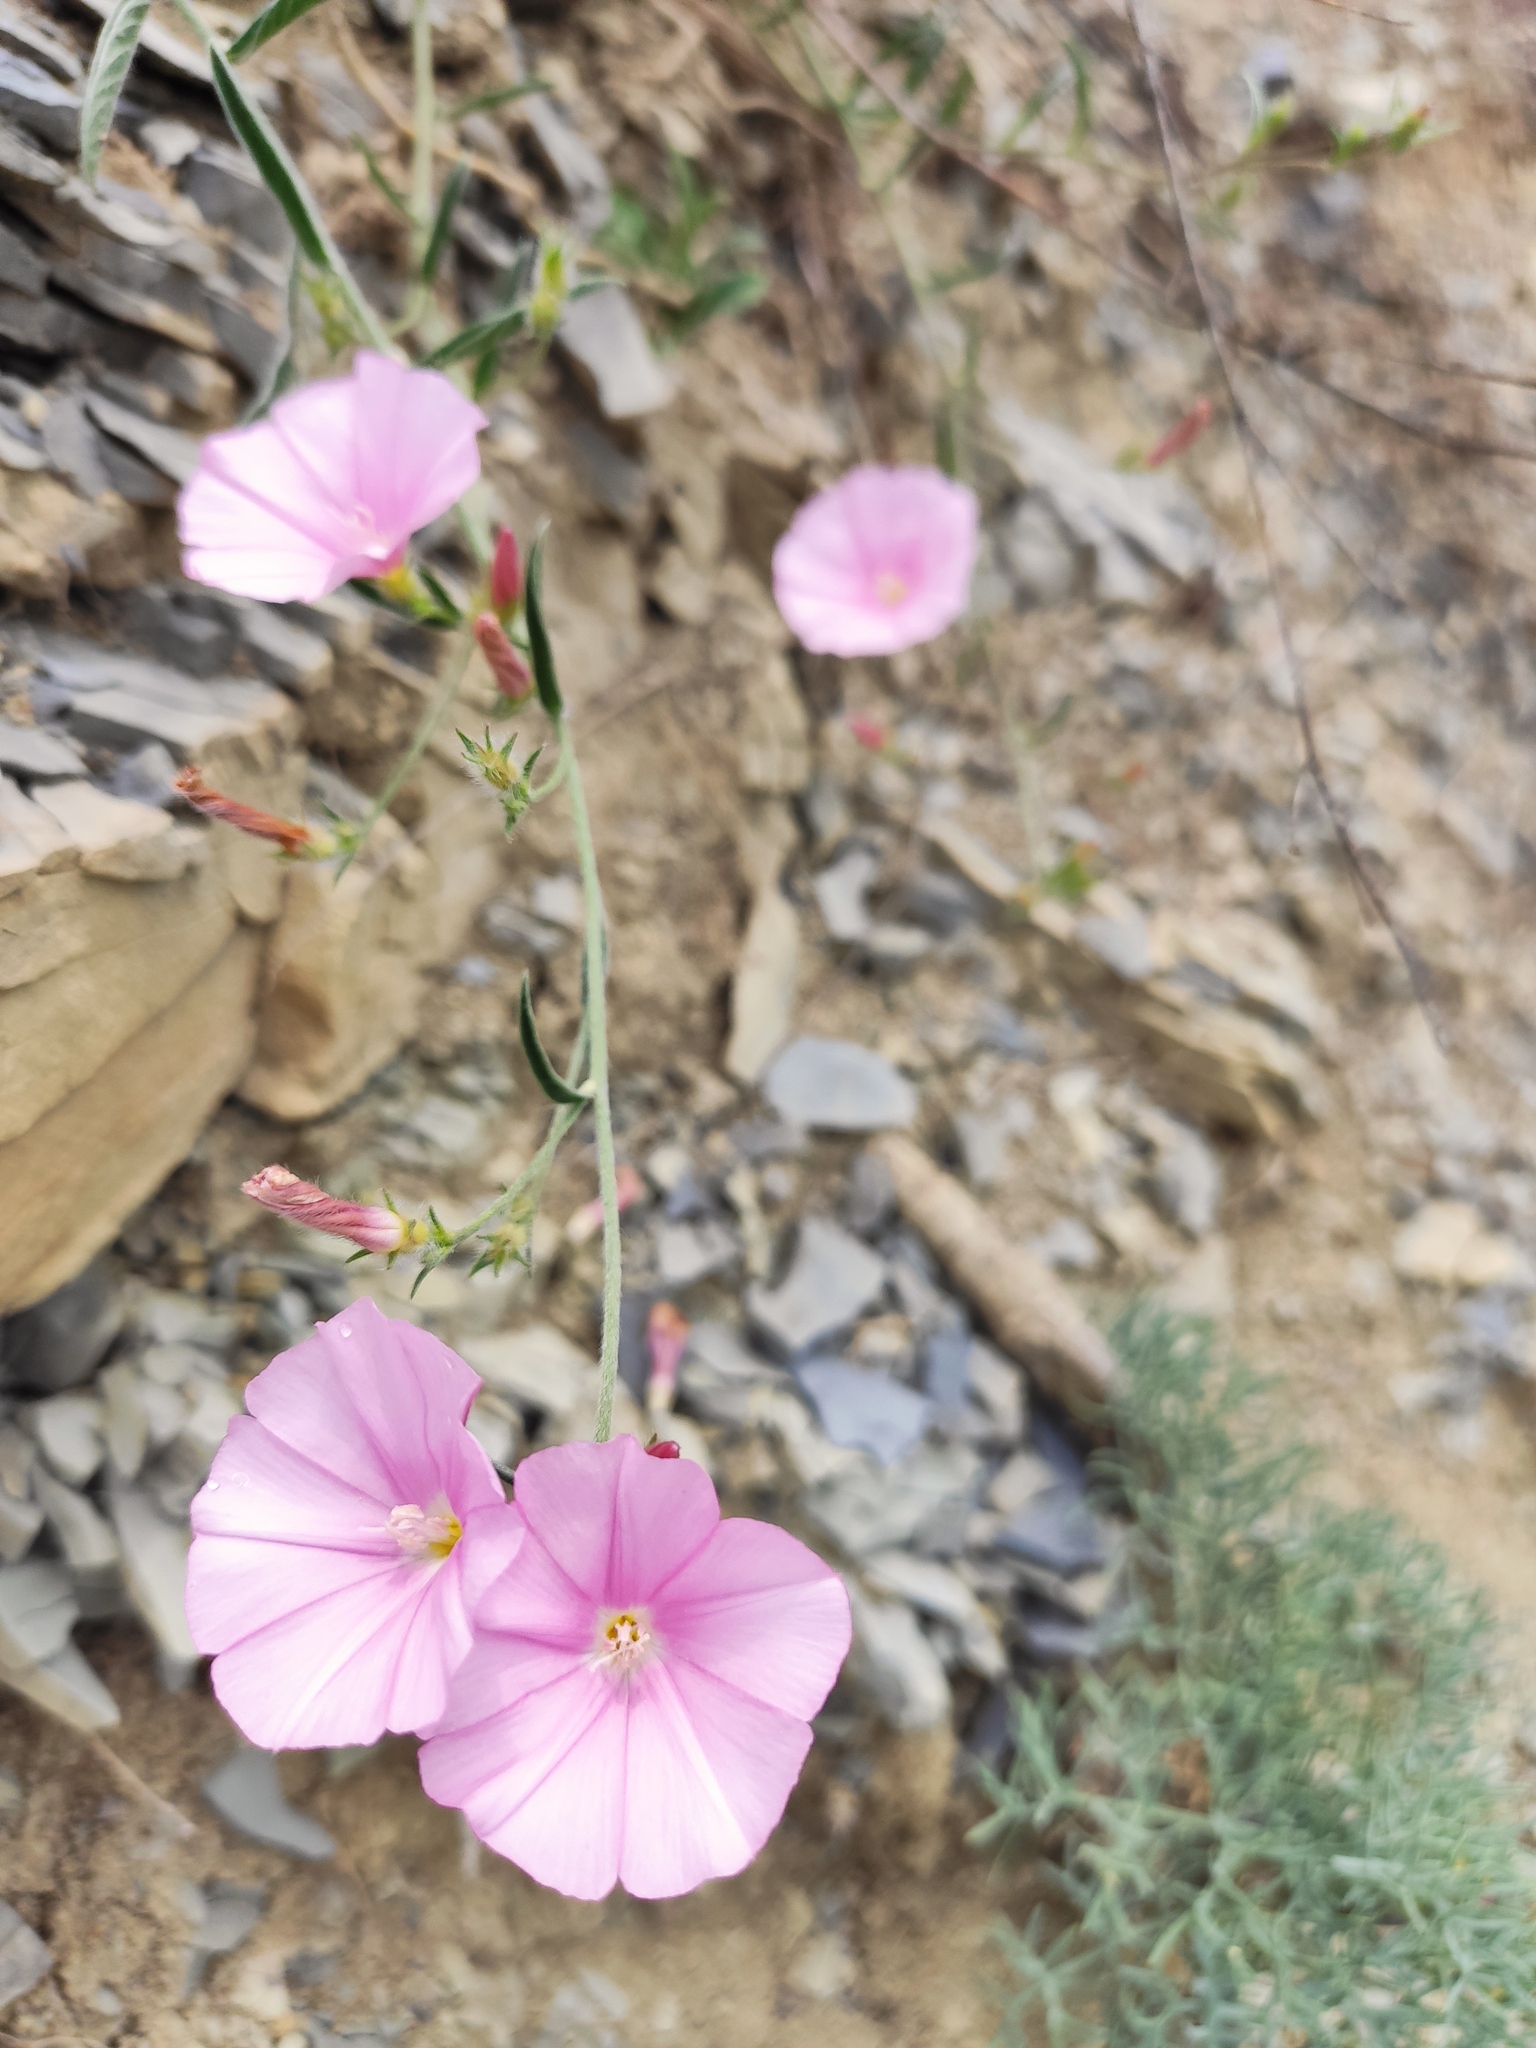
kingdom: Plantae
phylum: Tracheophyta
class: Magnoliopsida
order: Solanales
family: Convolvulaceae
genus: Convolvulus
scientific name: Convolvulus cantabrica
